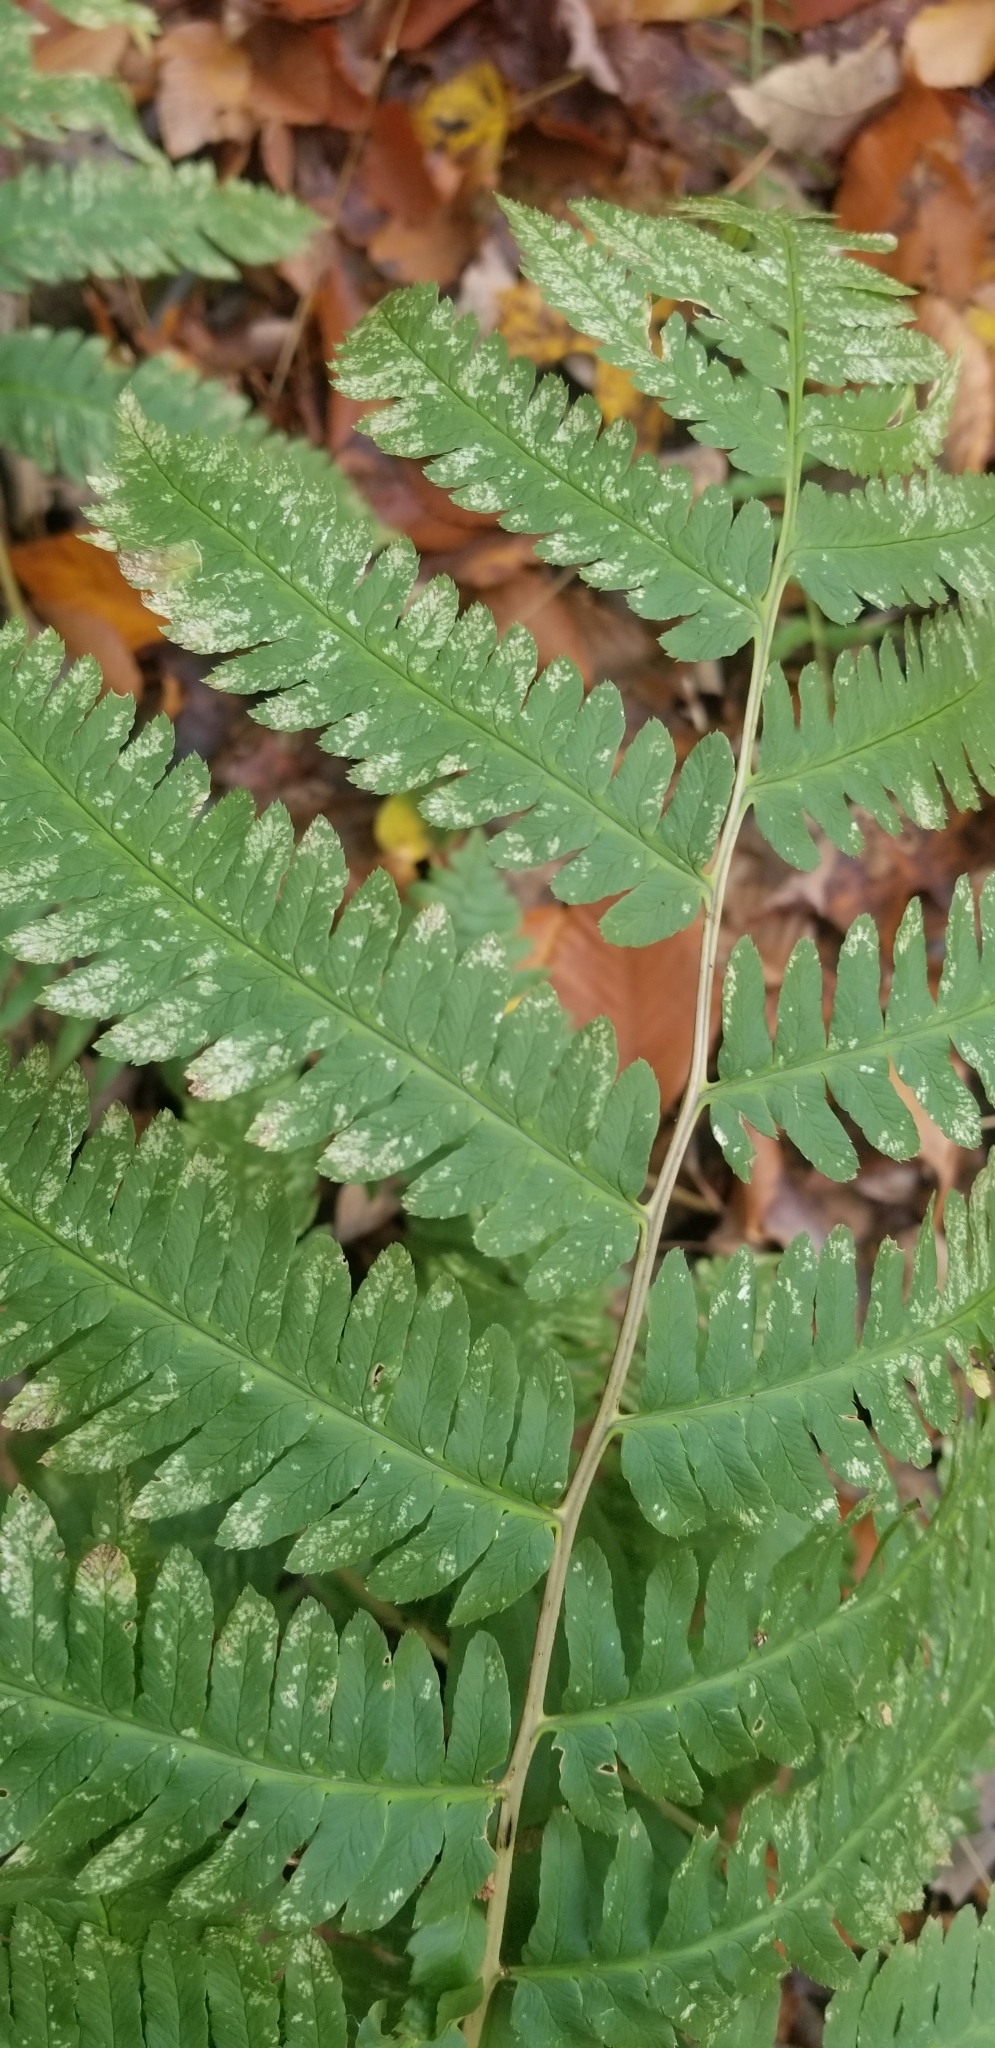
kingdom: Plantae
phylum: Tracheophyta
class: Polypodiopsida
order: Polypodiales
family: Dryopteridaceae
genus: Dryopteris
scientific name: Dryopteris goldieana
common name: Goldie's fern
